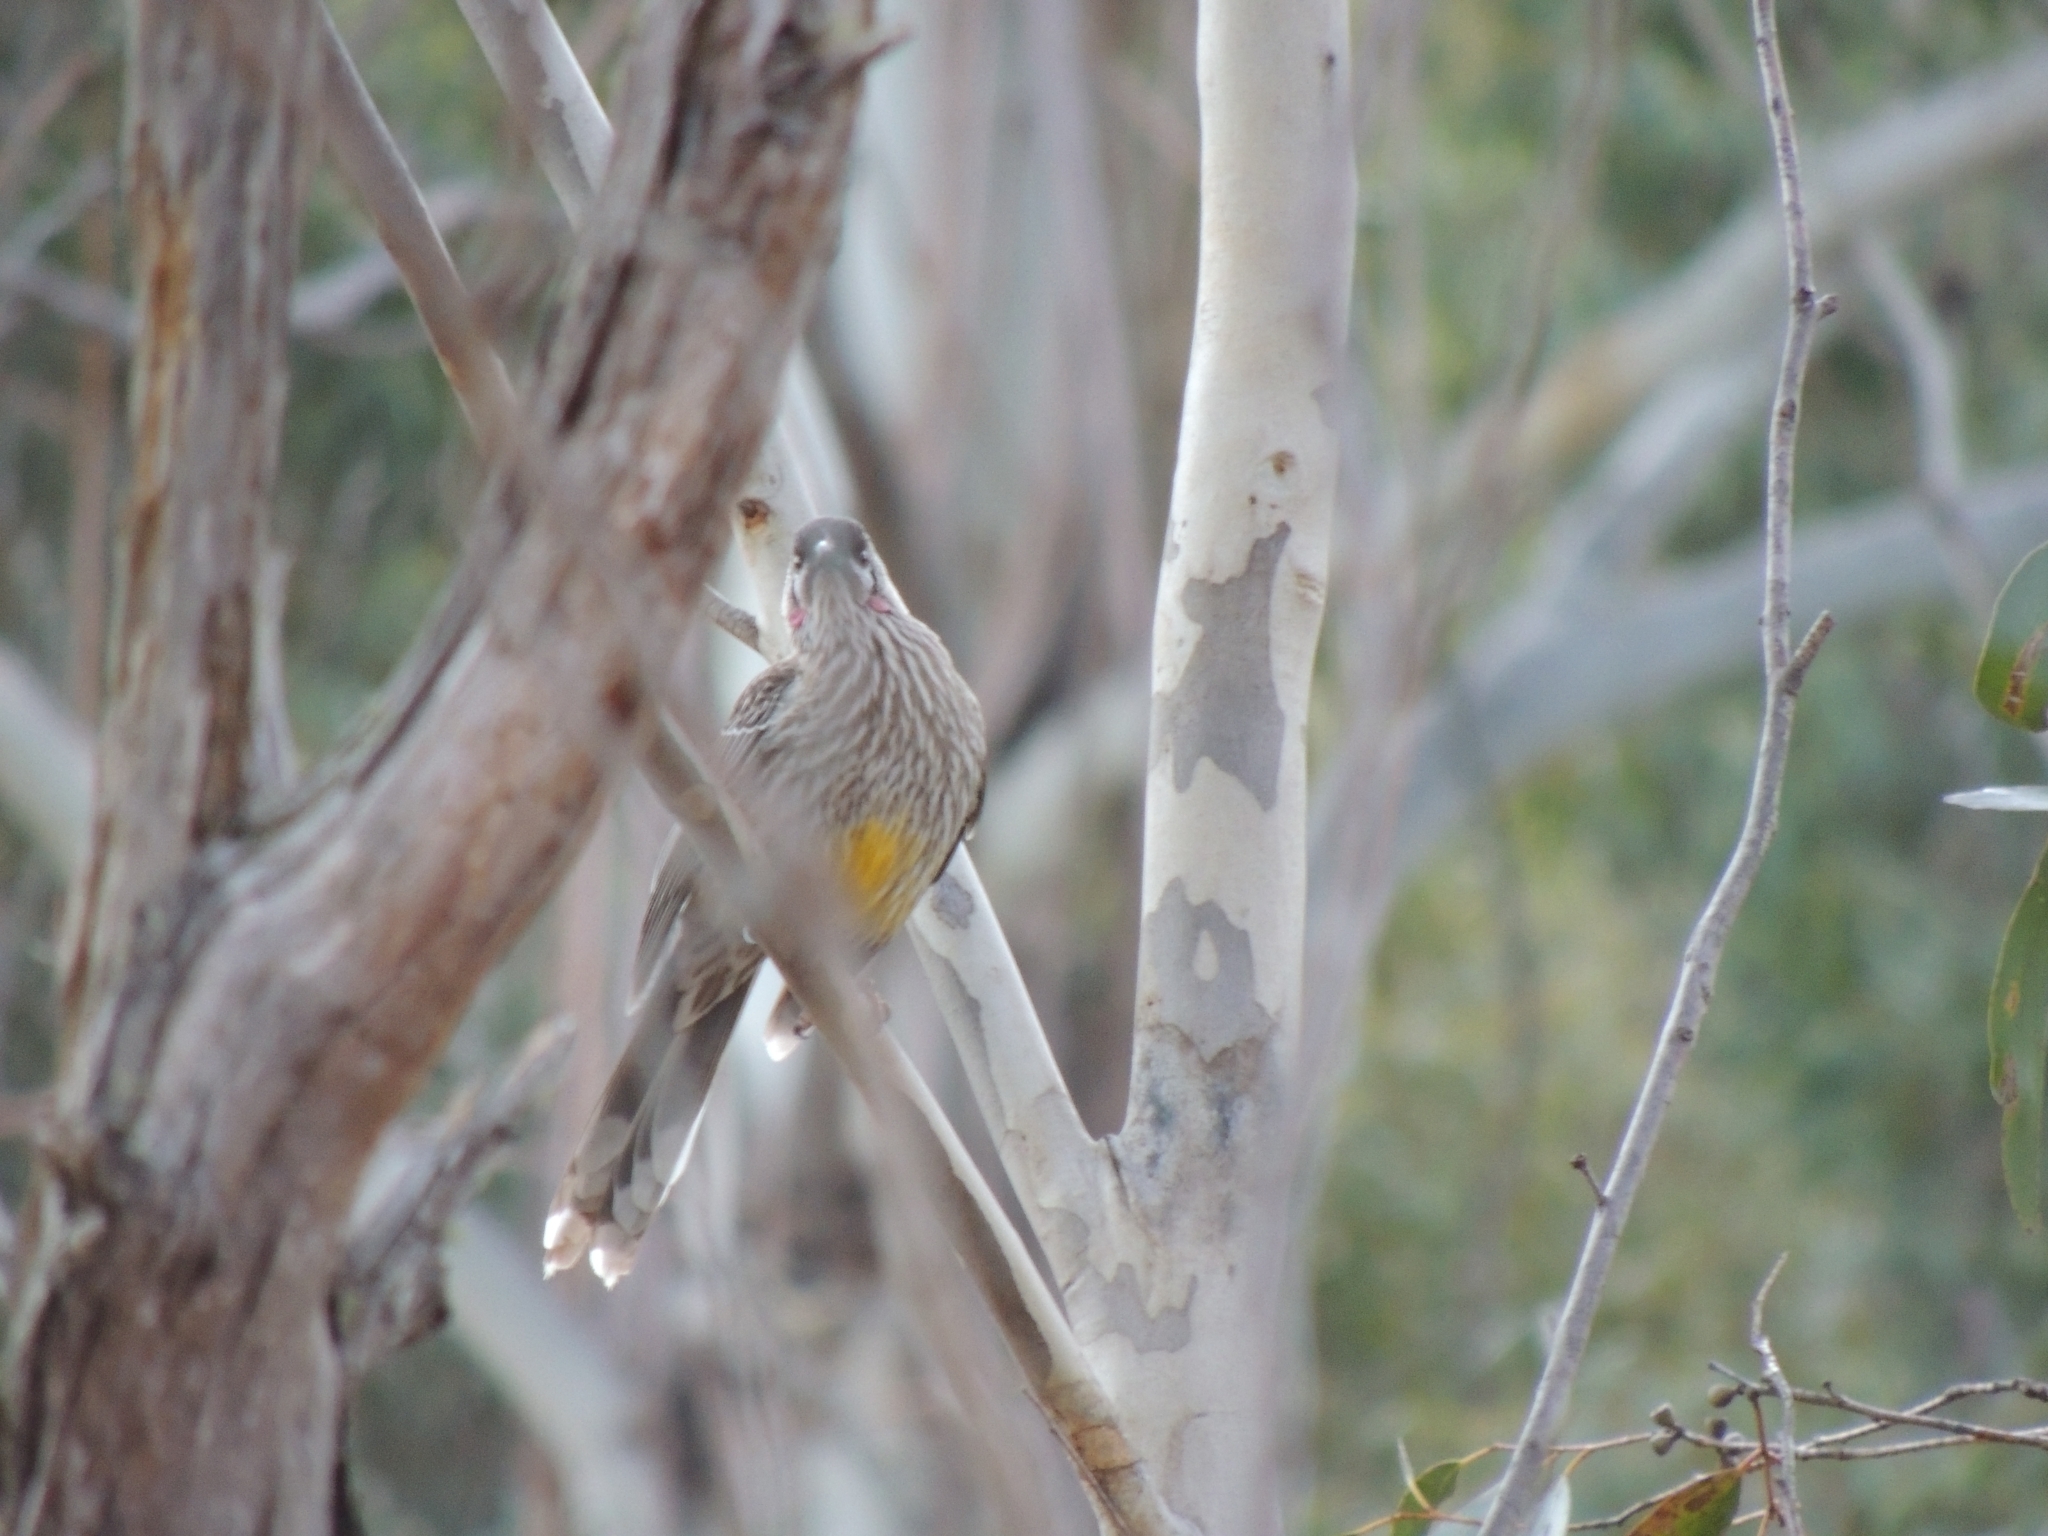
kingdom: Animalia
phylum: Chordata
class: Aves
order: Passeriformes
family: Meliphagidae
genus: Anthochaera
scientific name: Anthochaera carunculata
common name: Red wattlebird
